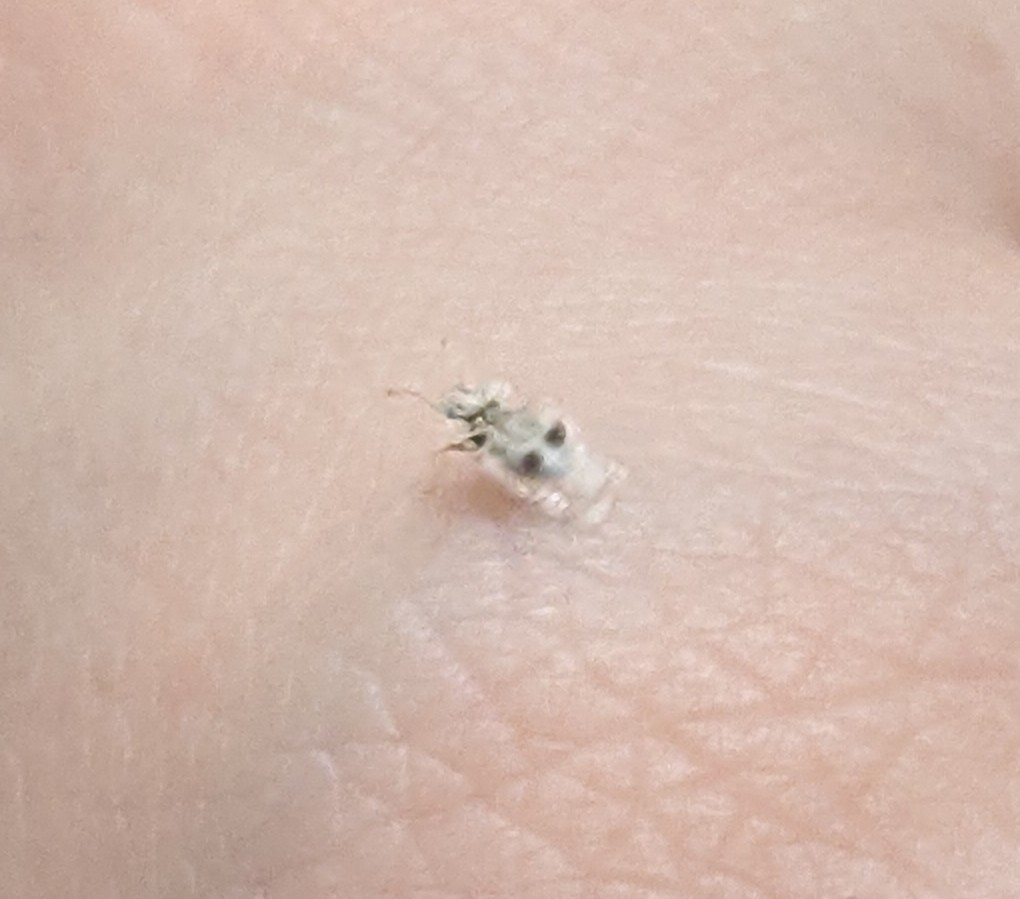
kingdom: Animalia
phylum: Arthropoda
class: Insecta
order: Hemiptera
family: Tingidae
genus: Corythucha
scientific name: Corythucha ciliata
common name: Sycamore lace bug
